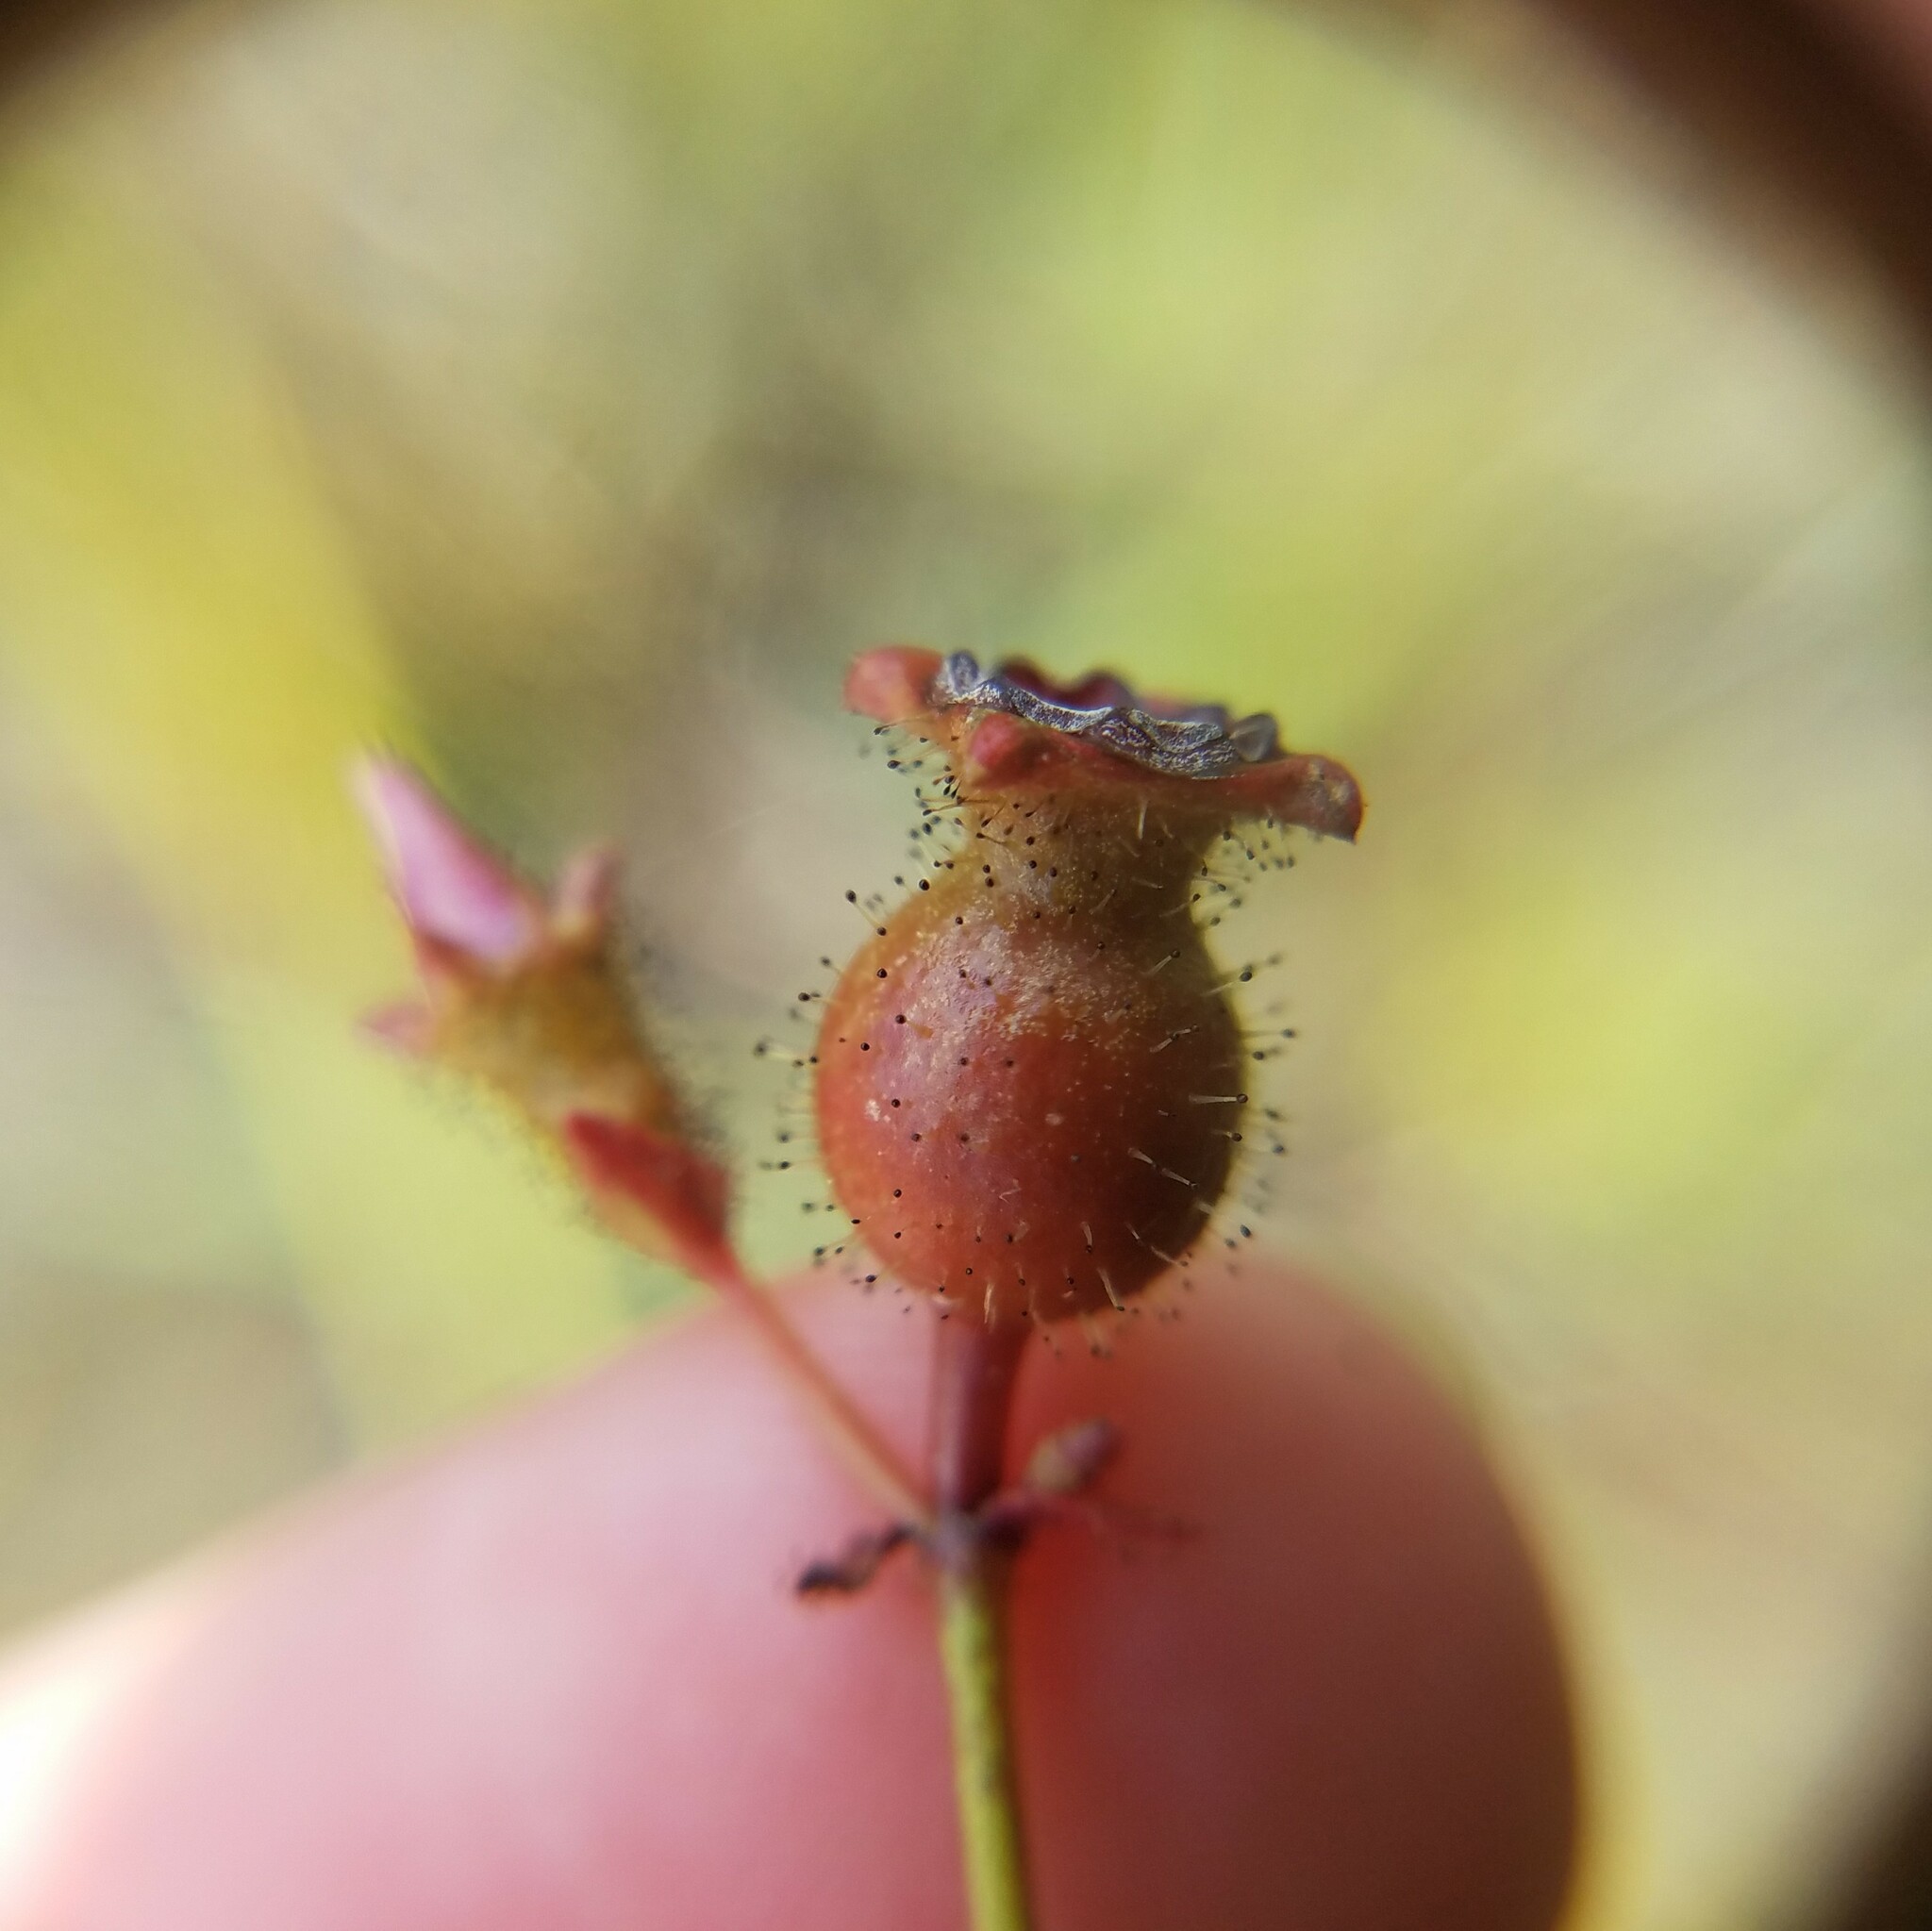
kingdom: Plantae
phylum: Tracheophyta
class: Magnoliopsida
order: Myrtales
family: Melastomataceae
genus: Rhexia
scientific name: Rhexia alifanus
